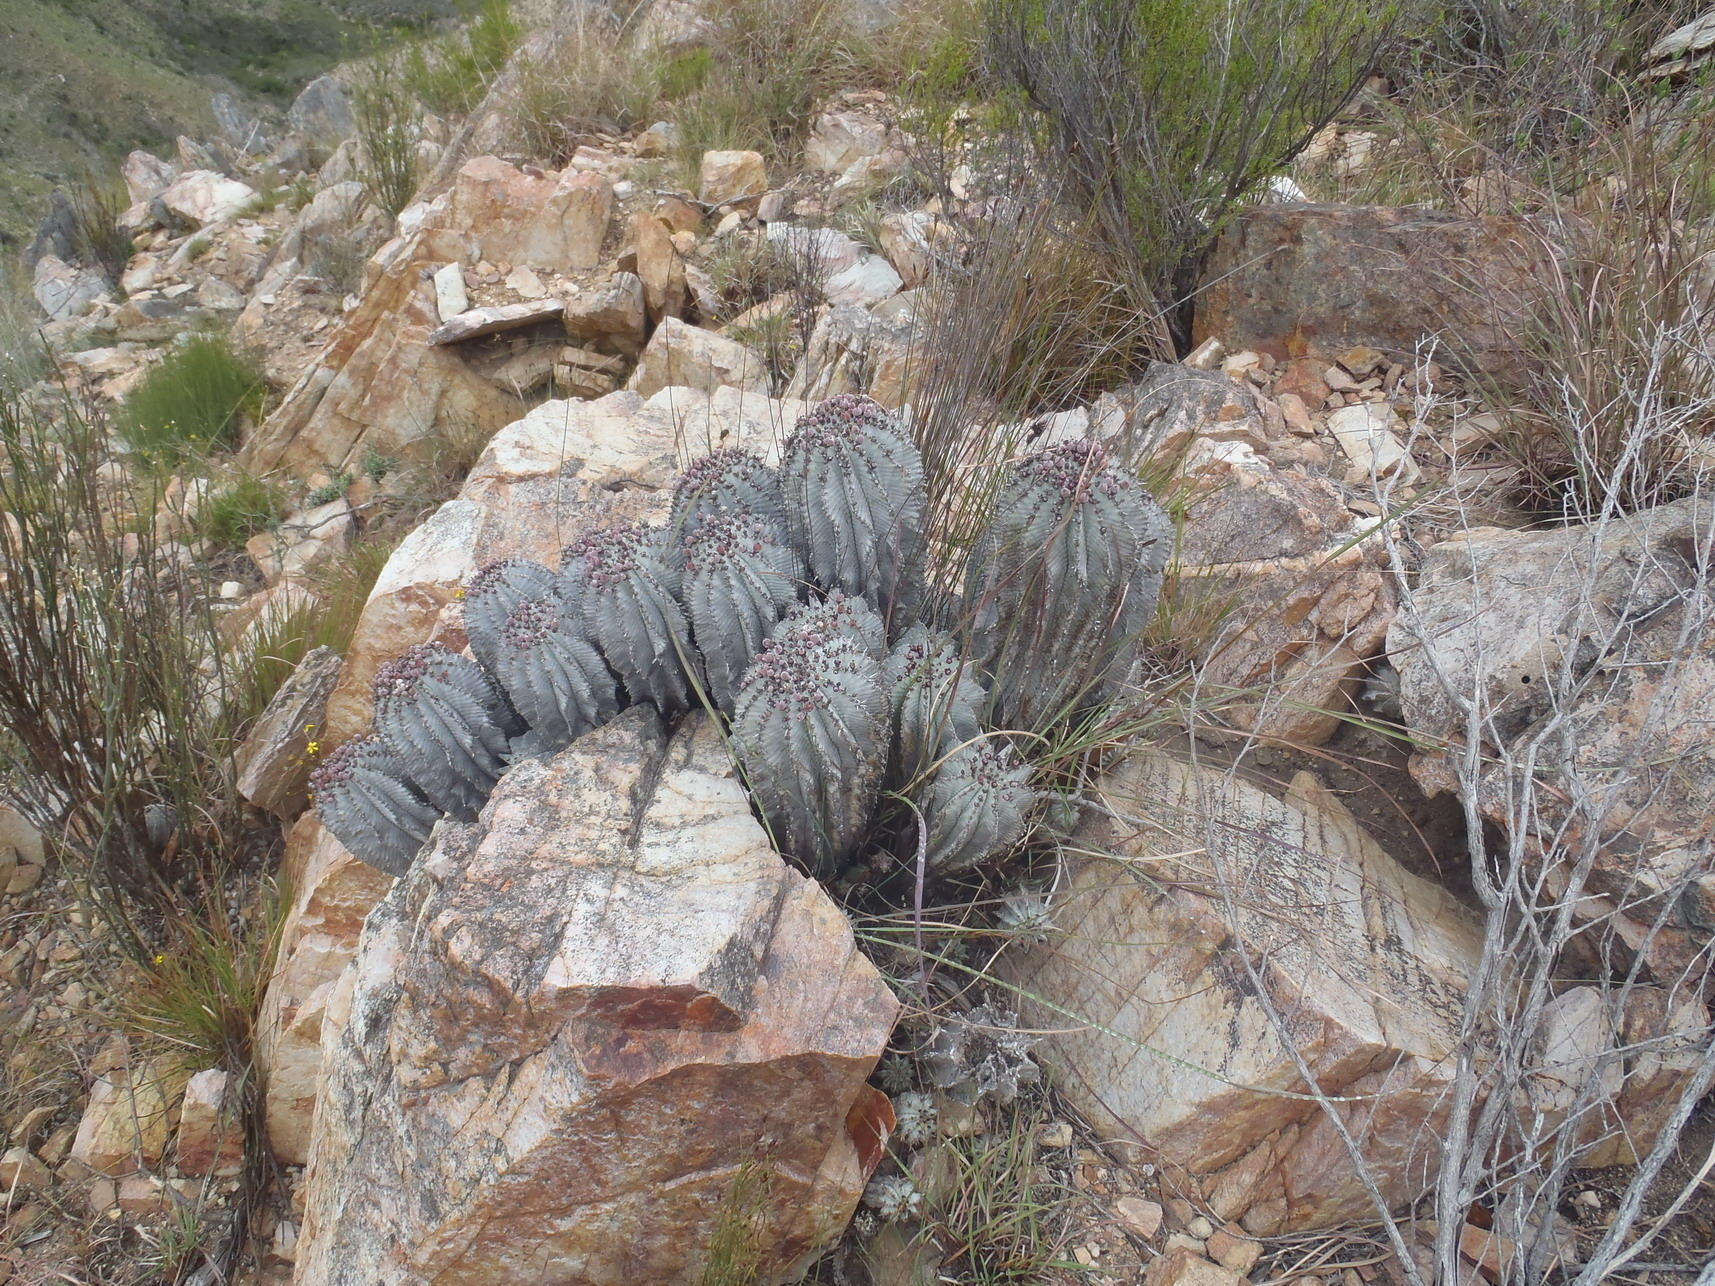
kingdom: Plantae
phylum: Tracheophyta
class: Magnoliopsida
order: Malpighiales
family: Euphorbiaceae
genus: Euphorbia
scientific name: Euphorbia polygona
